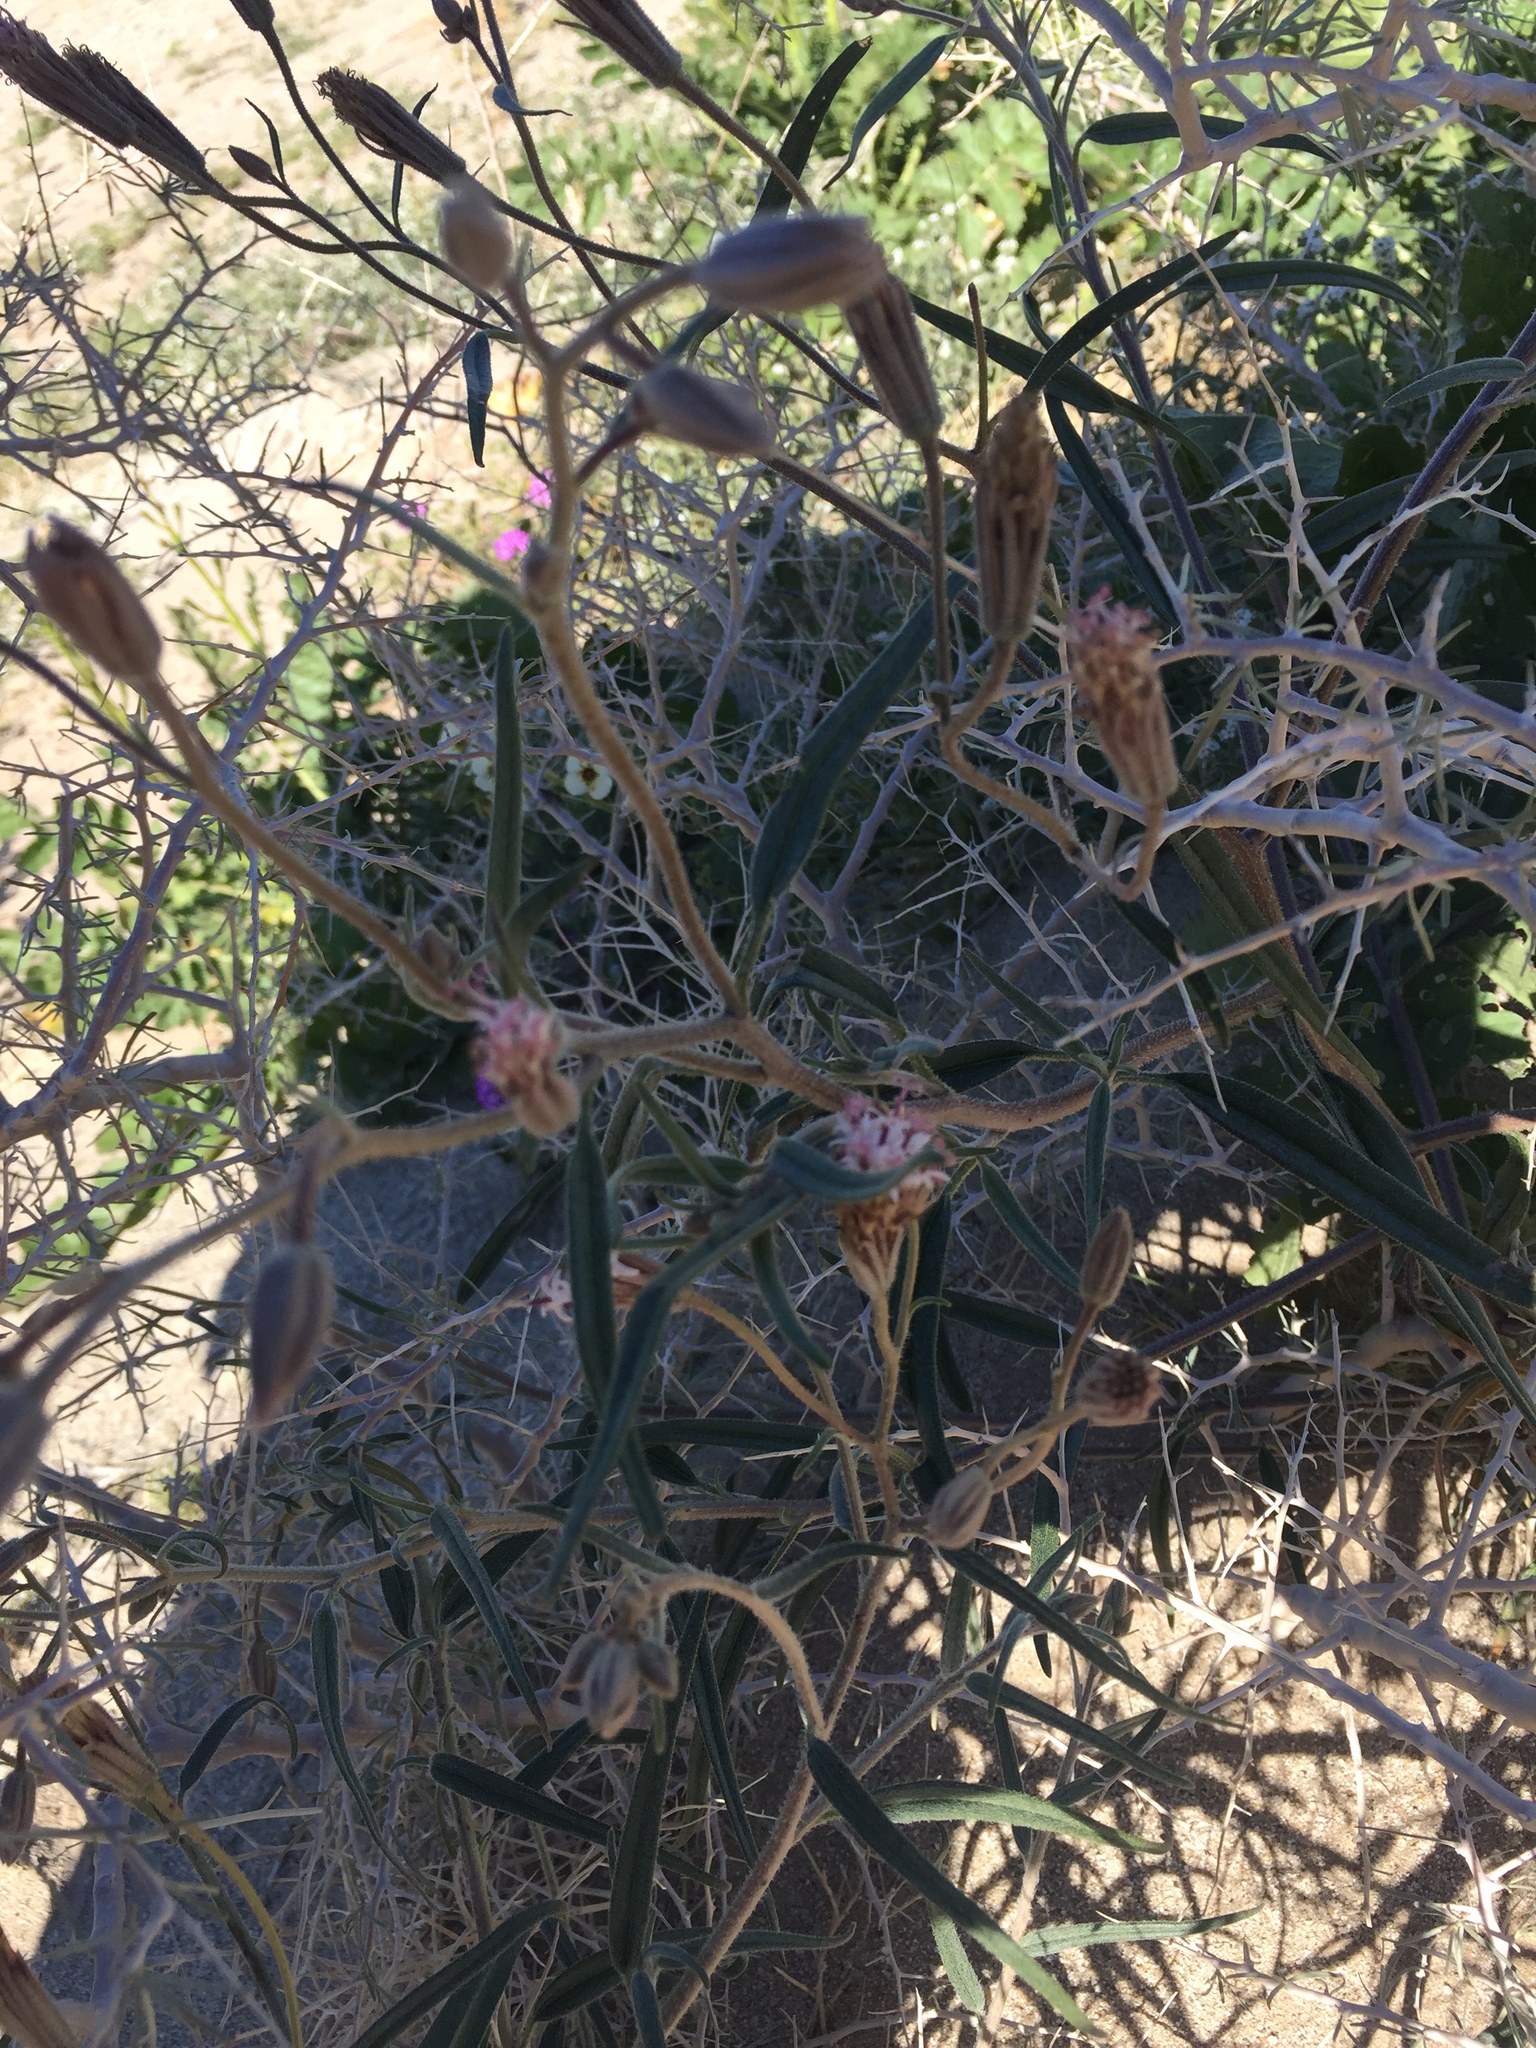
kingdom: Plantae
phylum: Tracheophyta
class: Magnoliopsida
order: Asterales
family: Asteraceae
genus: Palafoxia
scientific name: Palafoxia arida
